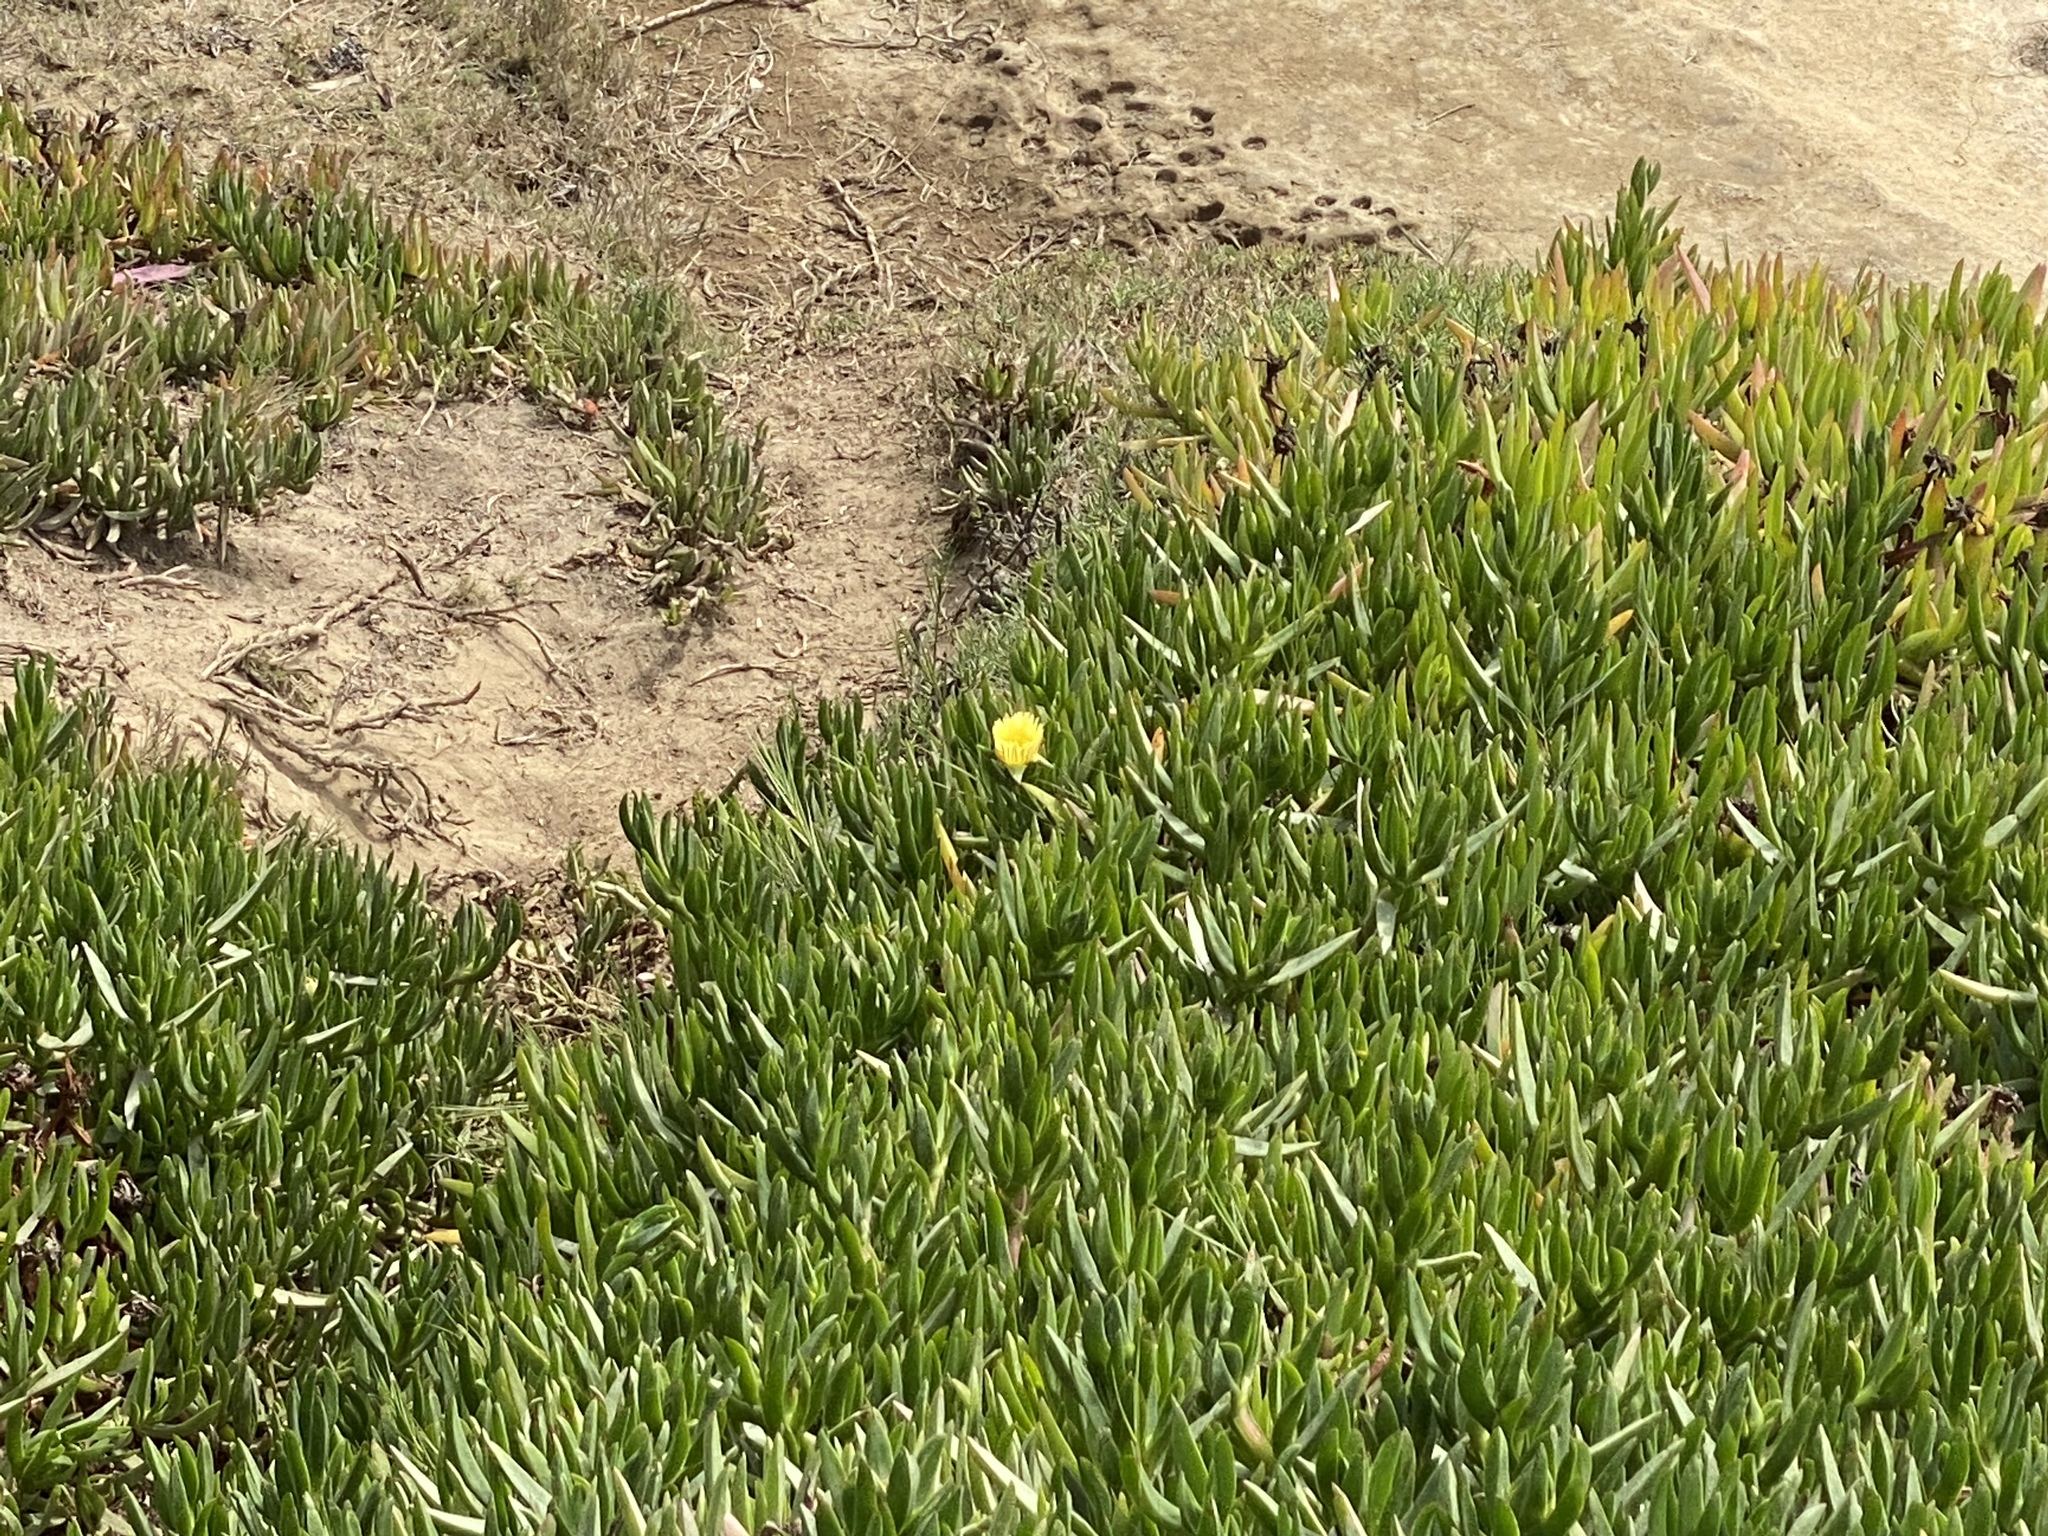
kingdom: Plantae
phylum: Tracheophyta
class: Magnoliopsida
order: Caryophyllales
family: Aizoaceae
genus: Carpobrotus
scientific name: Carpobrotus edulis
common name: Hottentot-fig
